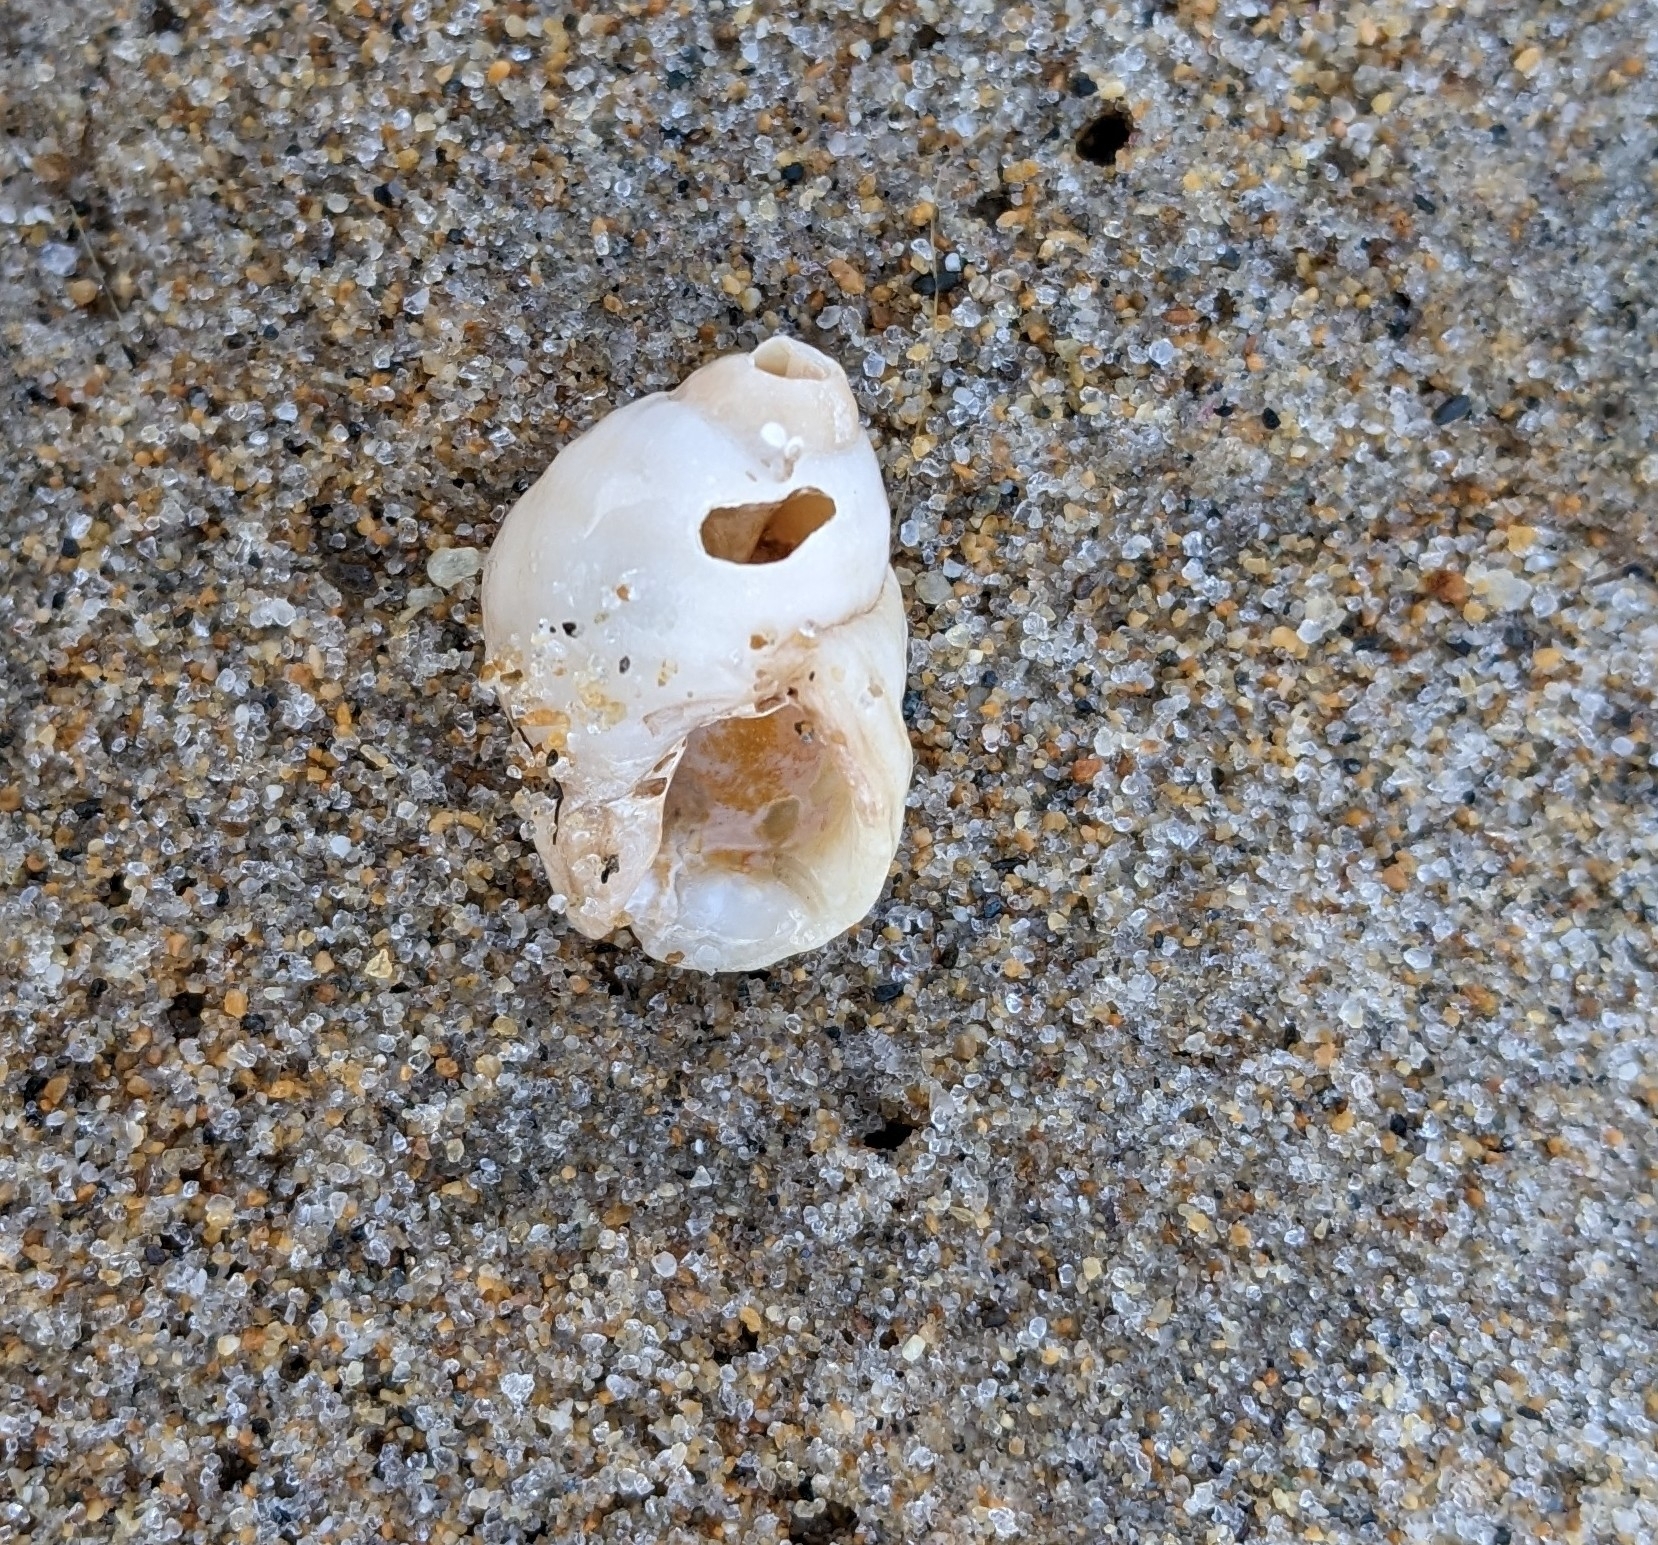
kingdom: Animalia
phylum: Mollusca
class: Gastropoda
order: Neogastropoda
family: Muricidae
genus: Nucella
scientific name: Nucella lapillus
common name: Dog whelk
